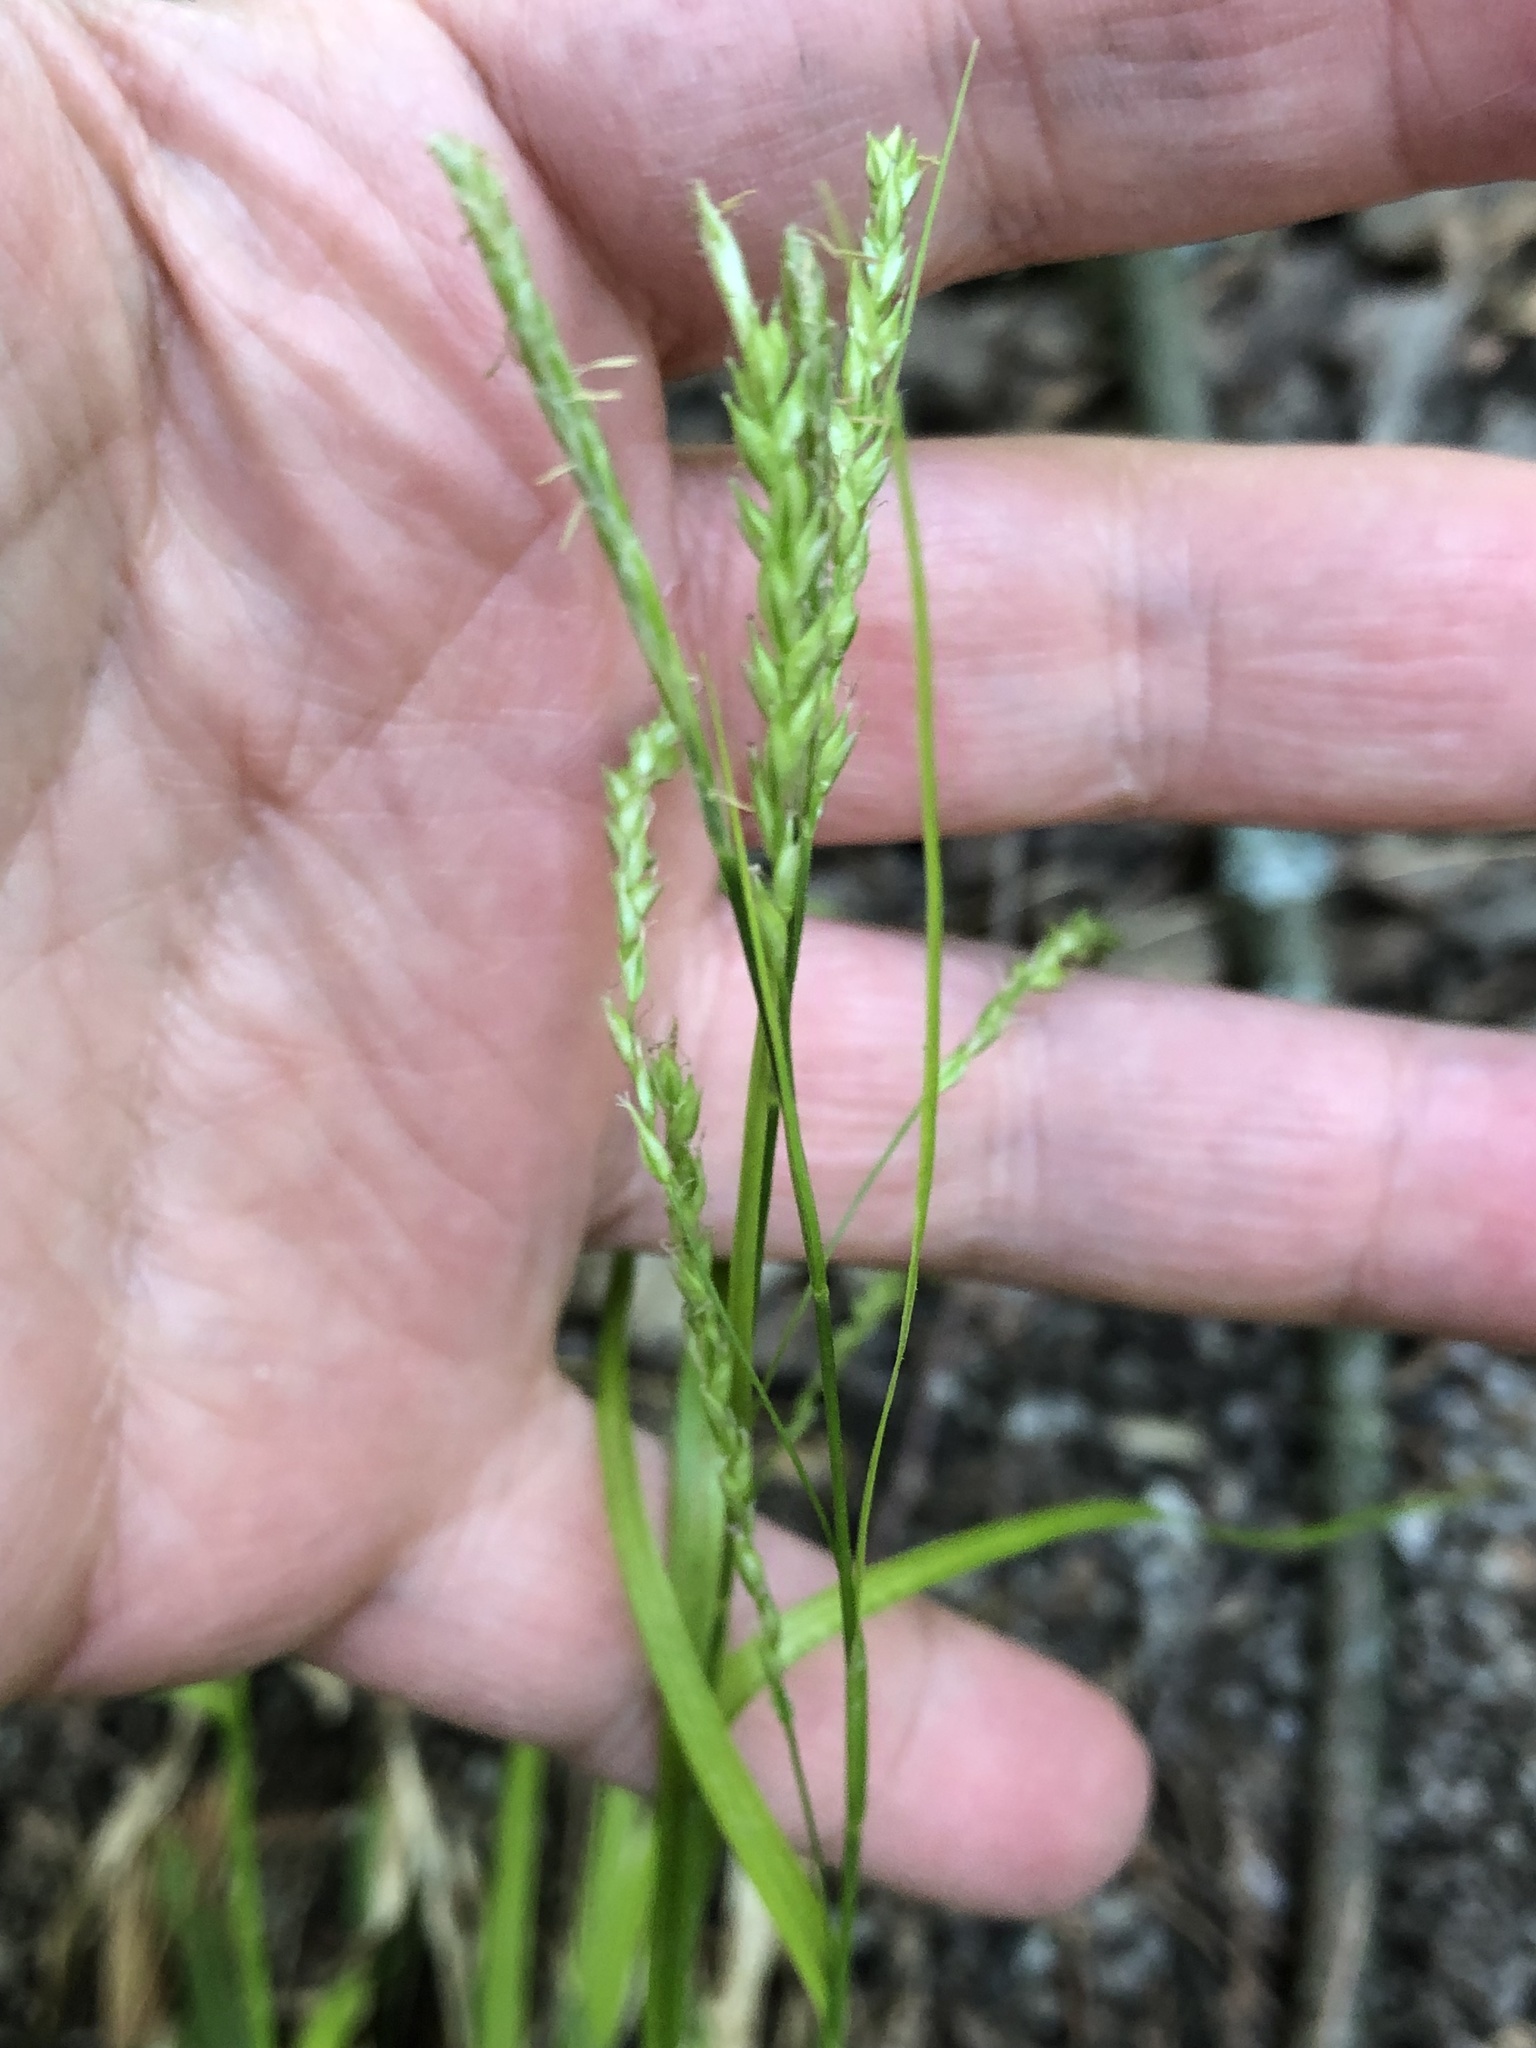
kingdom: Plantae
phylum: Tracheophyta
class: Liliopsida
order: Poales
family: Cyperaceae
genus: Carex
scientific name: Carex arctata
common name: Black sedge
